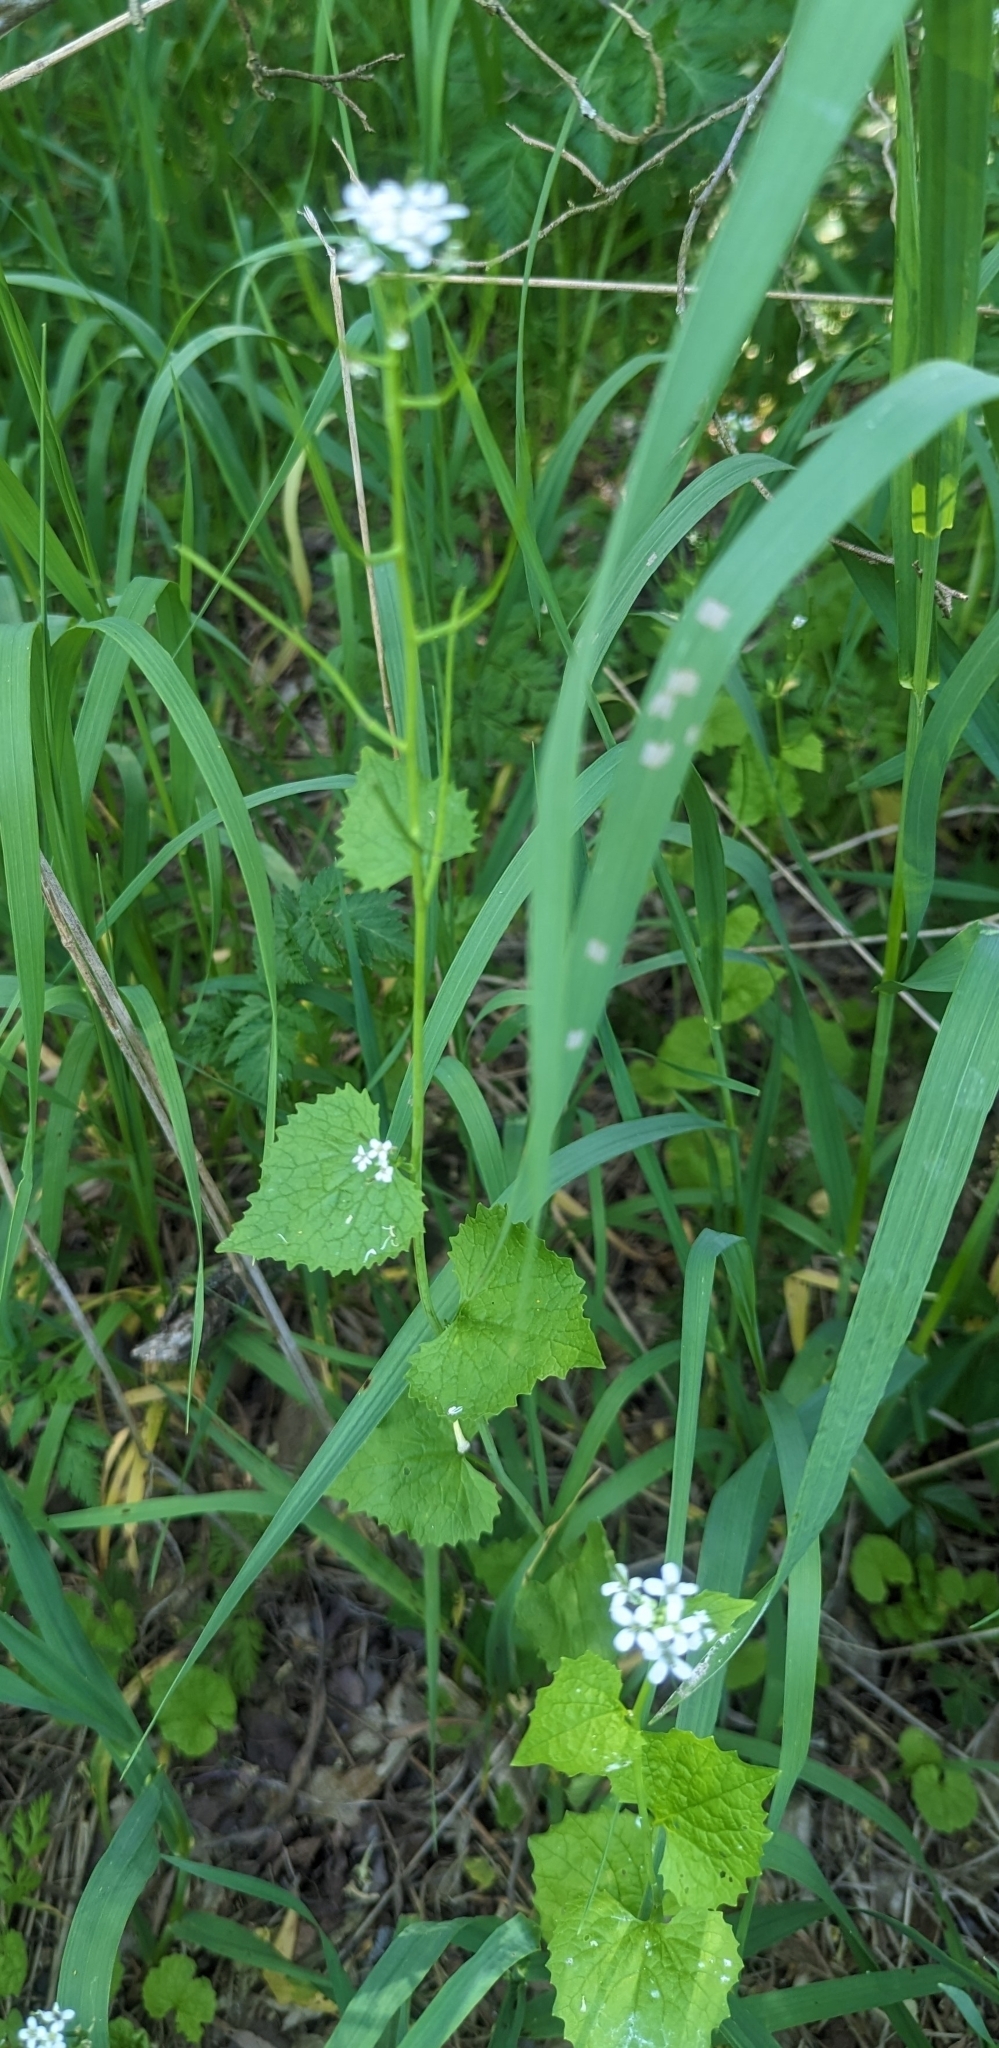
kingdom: Plantae
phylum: Tracheophyta
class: Magnoliopsida
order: Brassicales
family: Brassicaceae
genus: Alliaria
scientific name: Alliaria petiolata
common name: Garlic mustard
